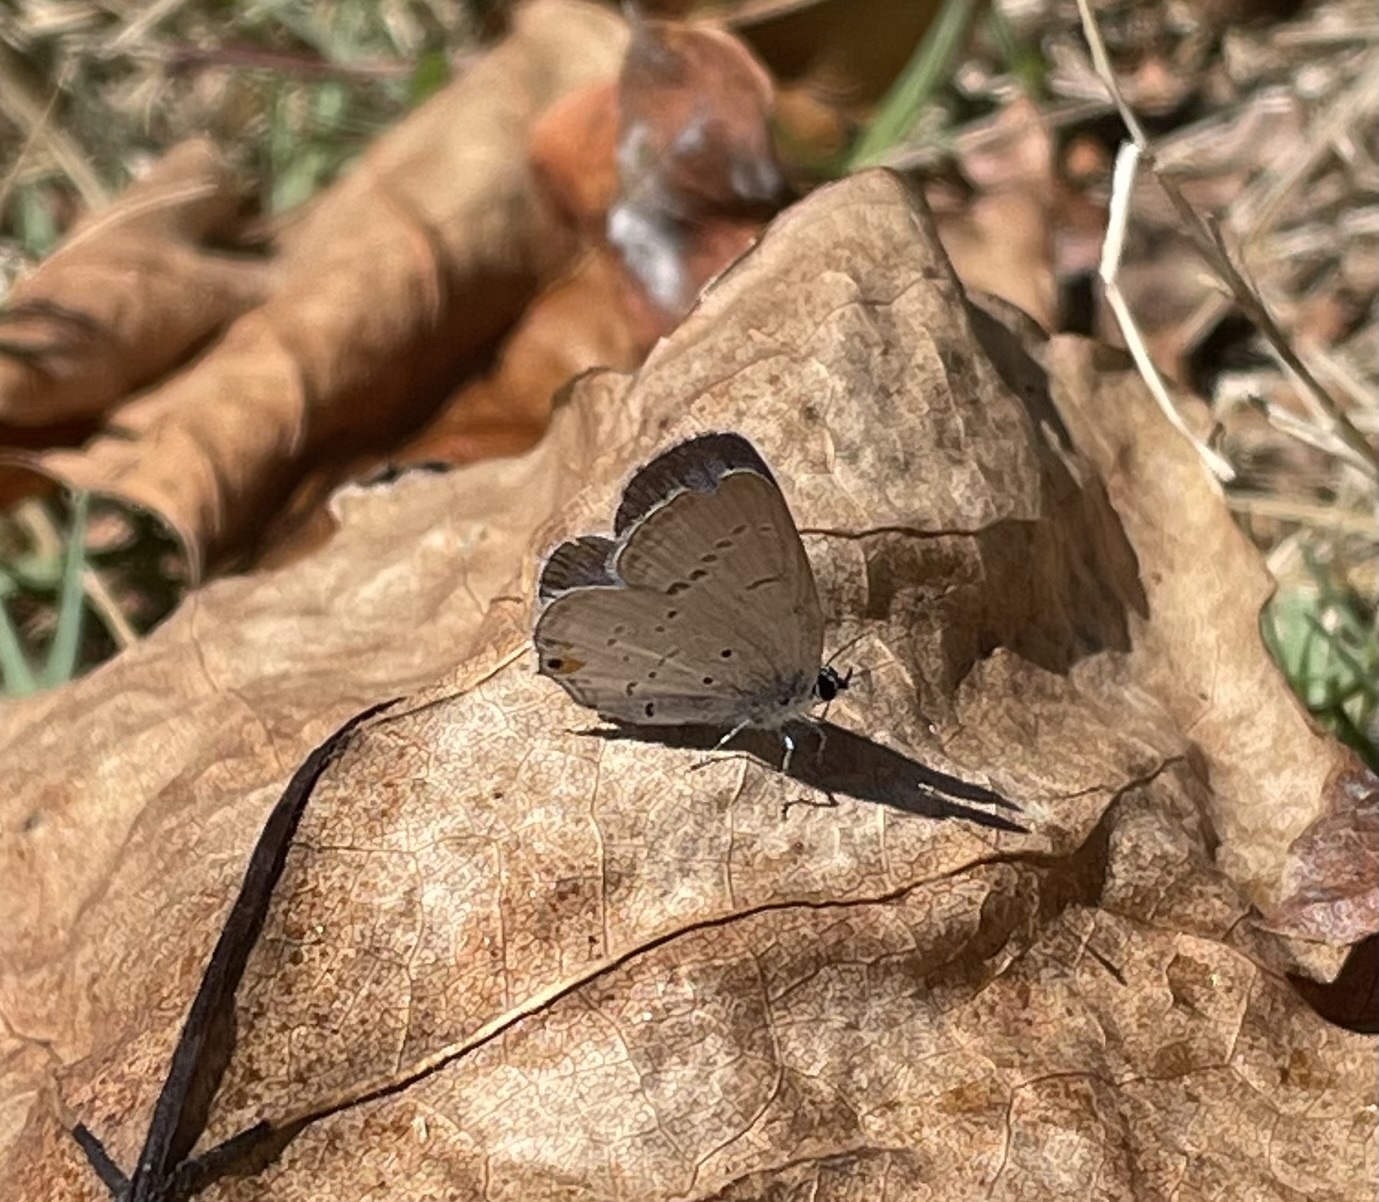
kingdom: Animalia
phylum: Arthropoda
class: Insecta
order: Lepidoptera
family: Lycaenidae
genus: Elkalyce
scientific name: Elkalyce comyntas
